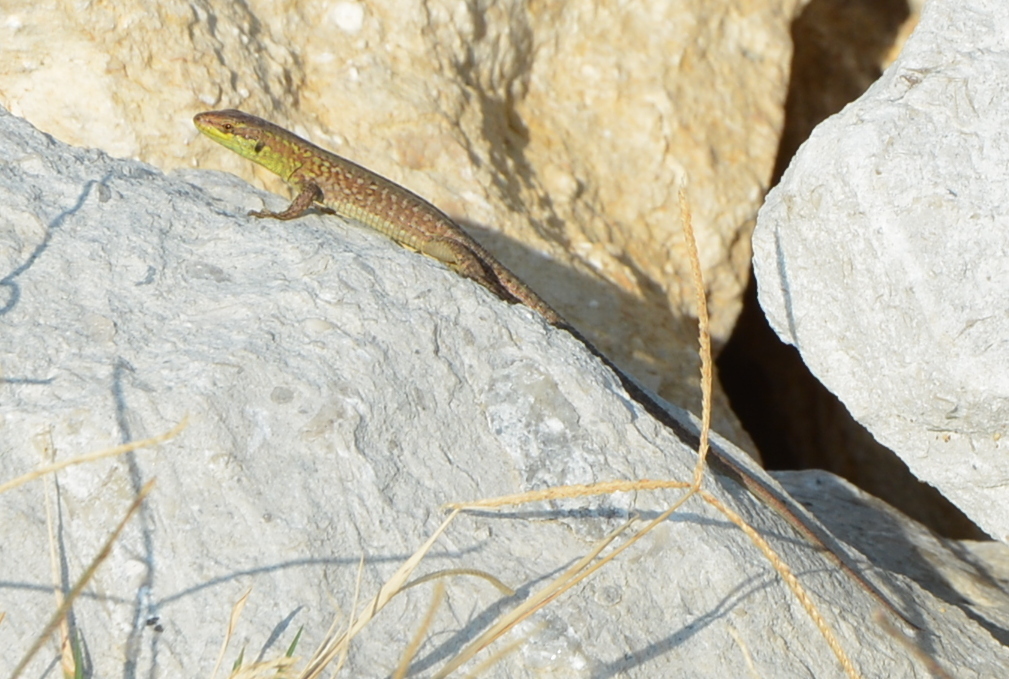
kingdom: Animalia
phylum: Chordata
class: Squamata
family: Lacertidae
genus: Podarcis
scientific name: Podarcis siculus
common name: Italian wall lizard
